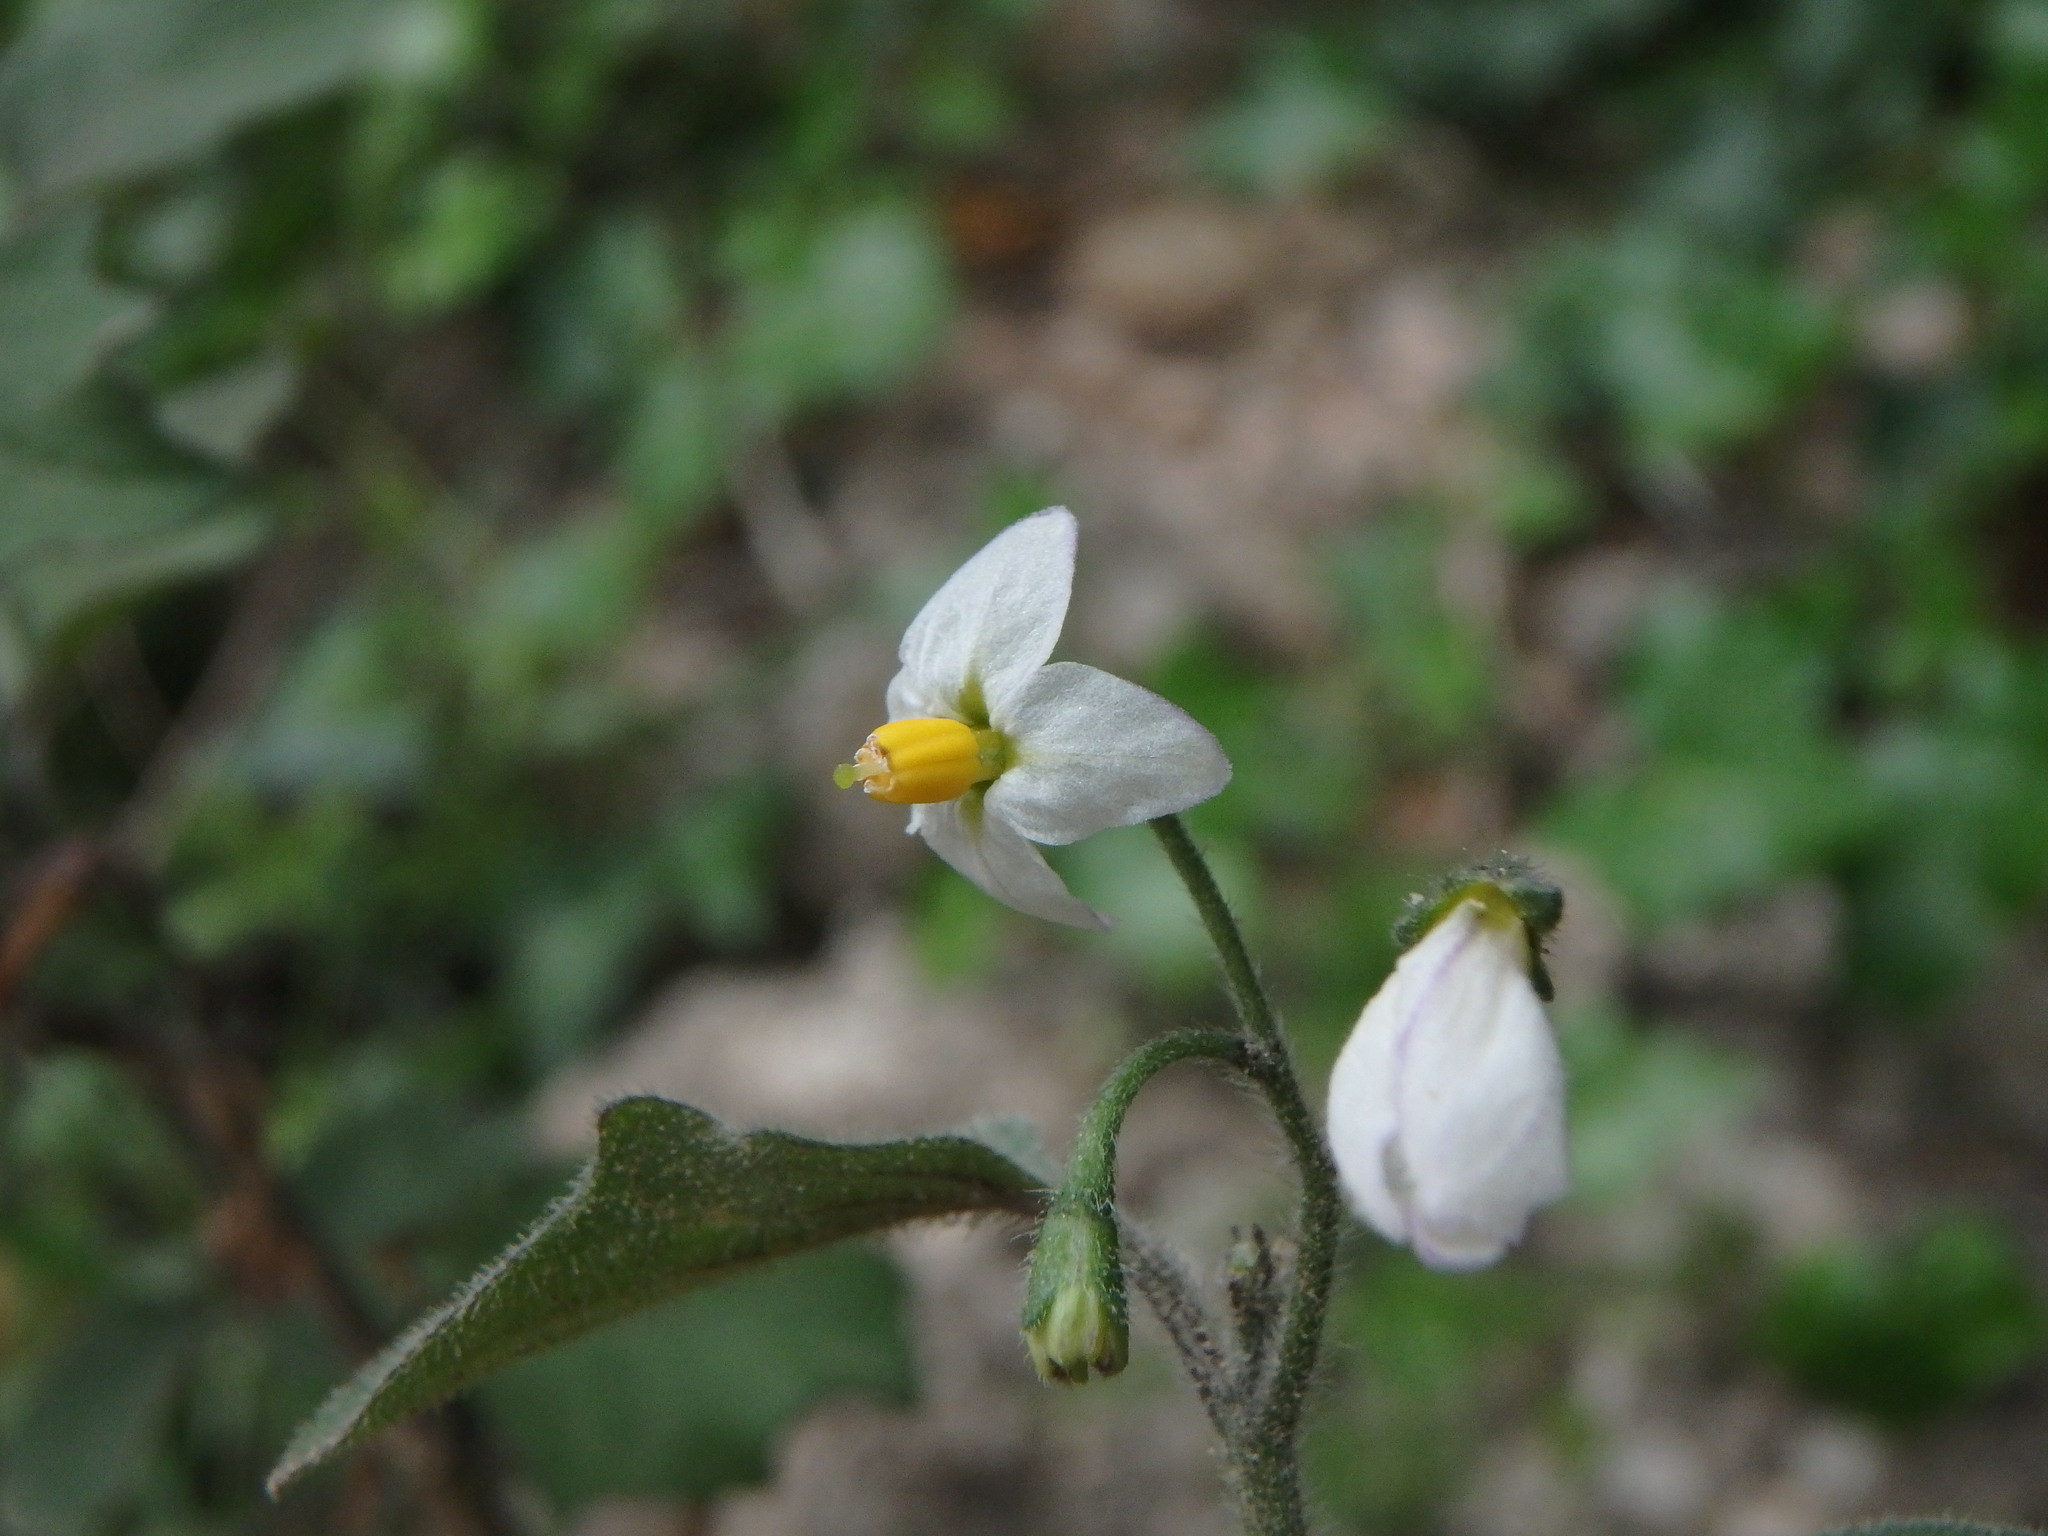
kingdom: Plantae
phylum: Tracheophyta
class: Magnoliopsida
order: Solanales
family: Solanaceae
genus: Solanum
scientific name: Solanum nigrum
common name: Black nightshade
